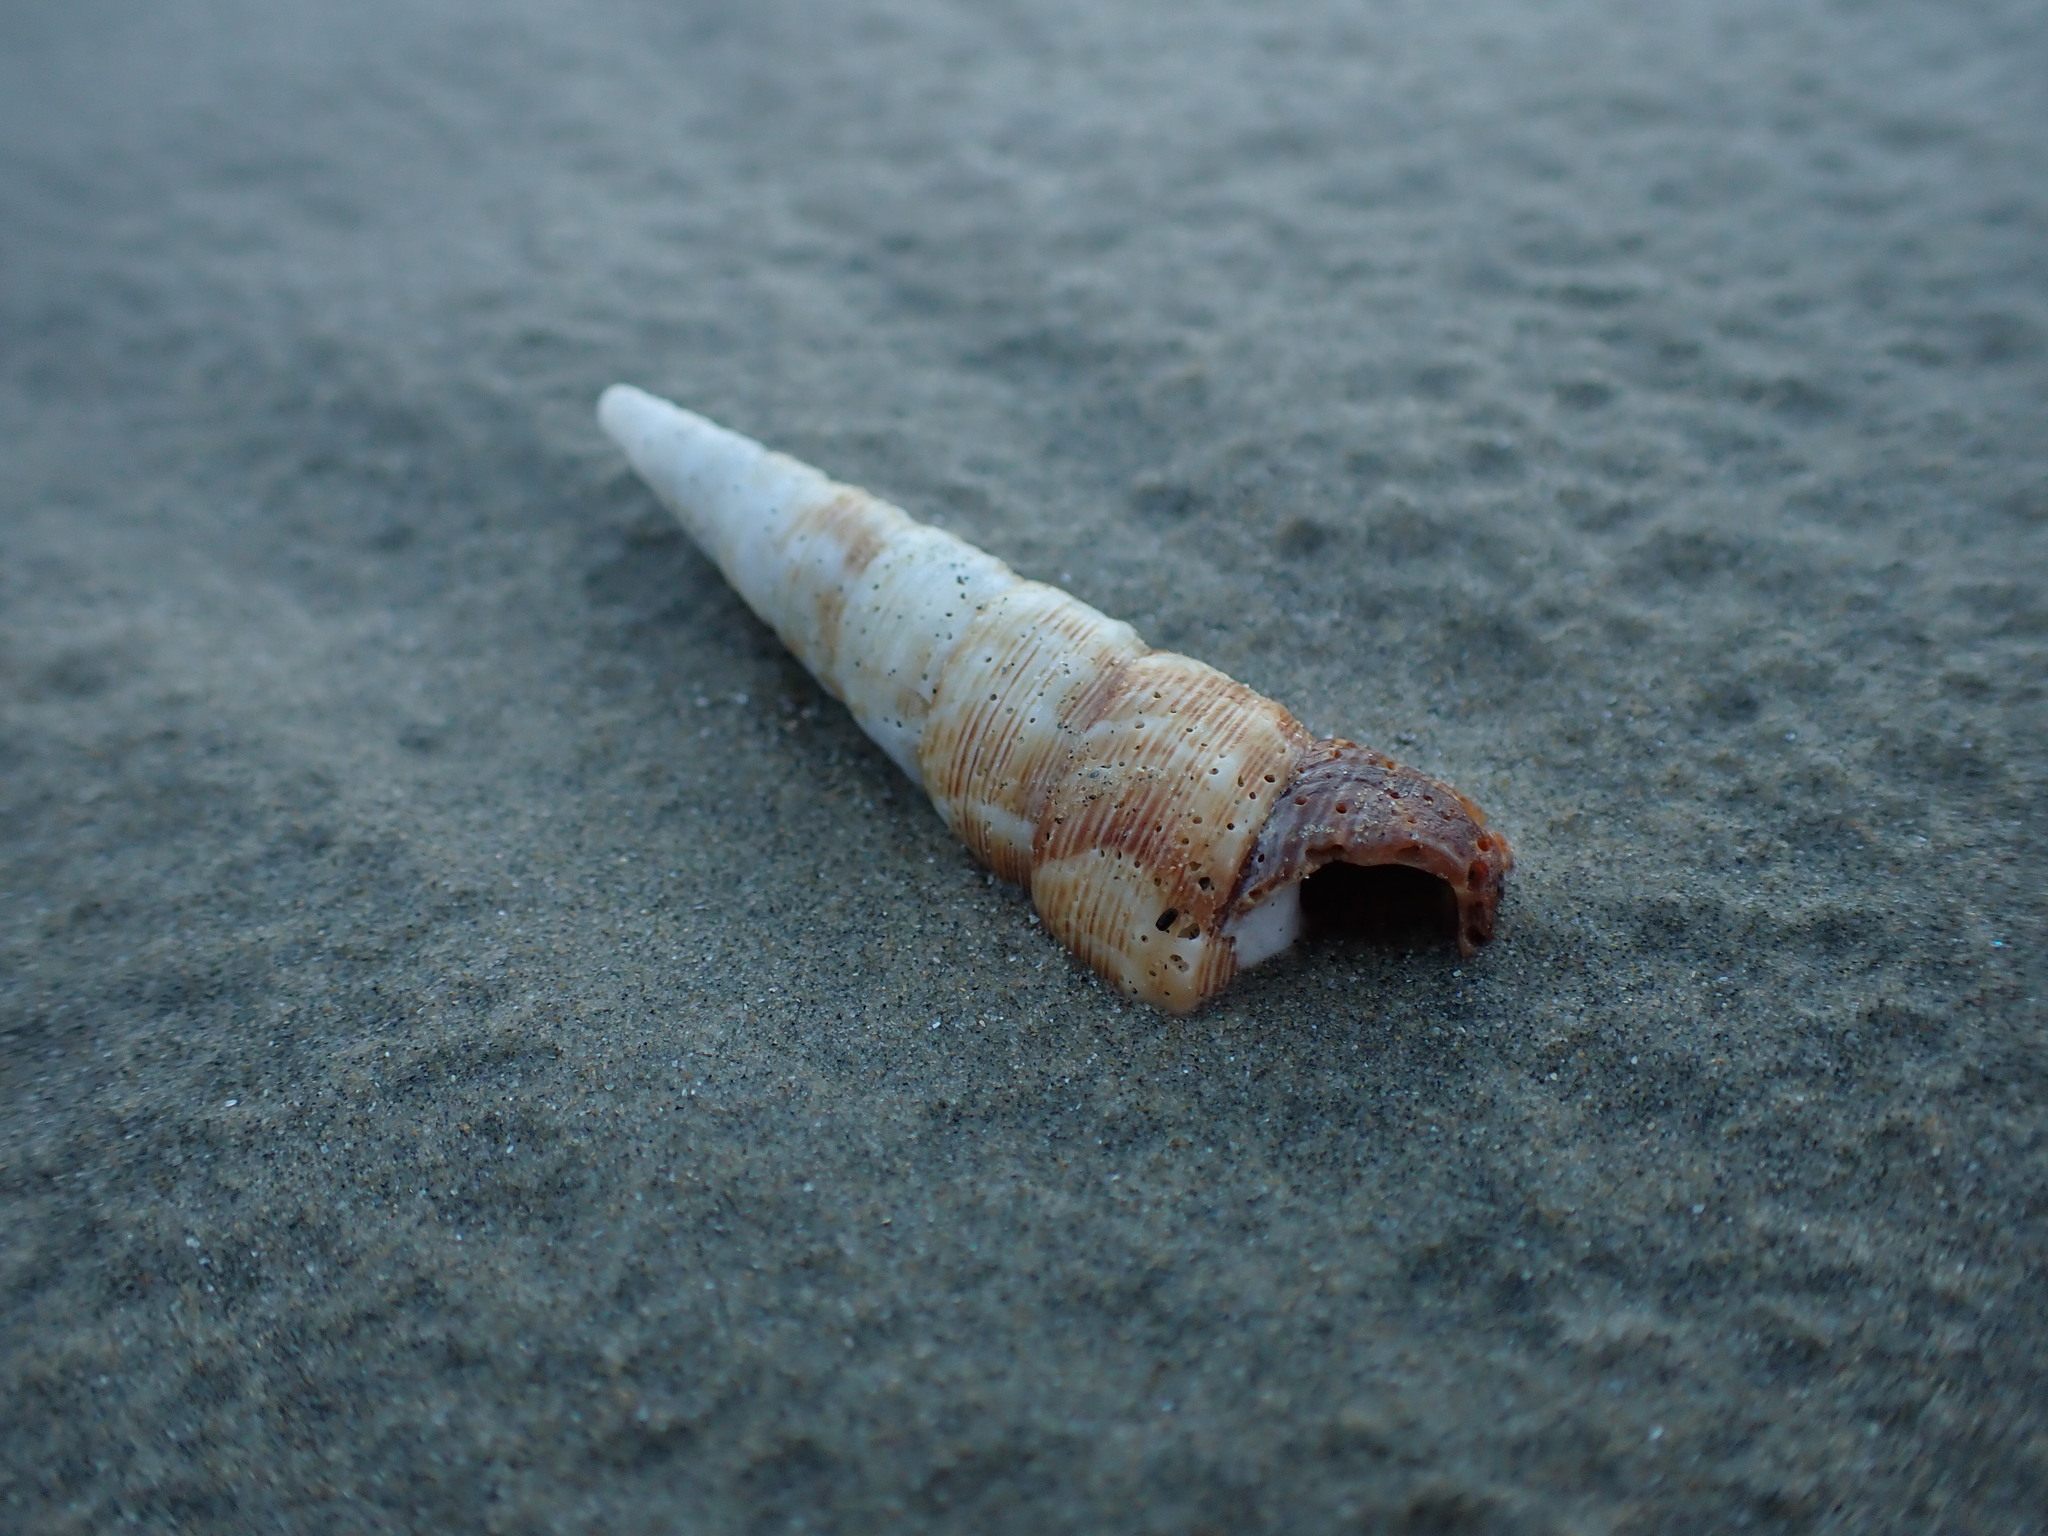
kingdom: Animalia
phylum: Mollusca
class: Gastropoda
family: Turritellidae
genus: Maoricolpus
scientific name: Maoricolpus roseus
